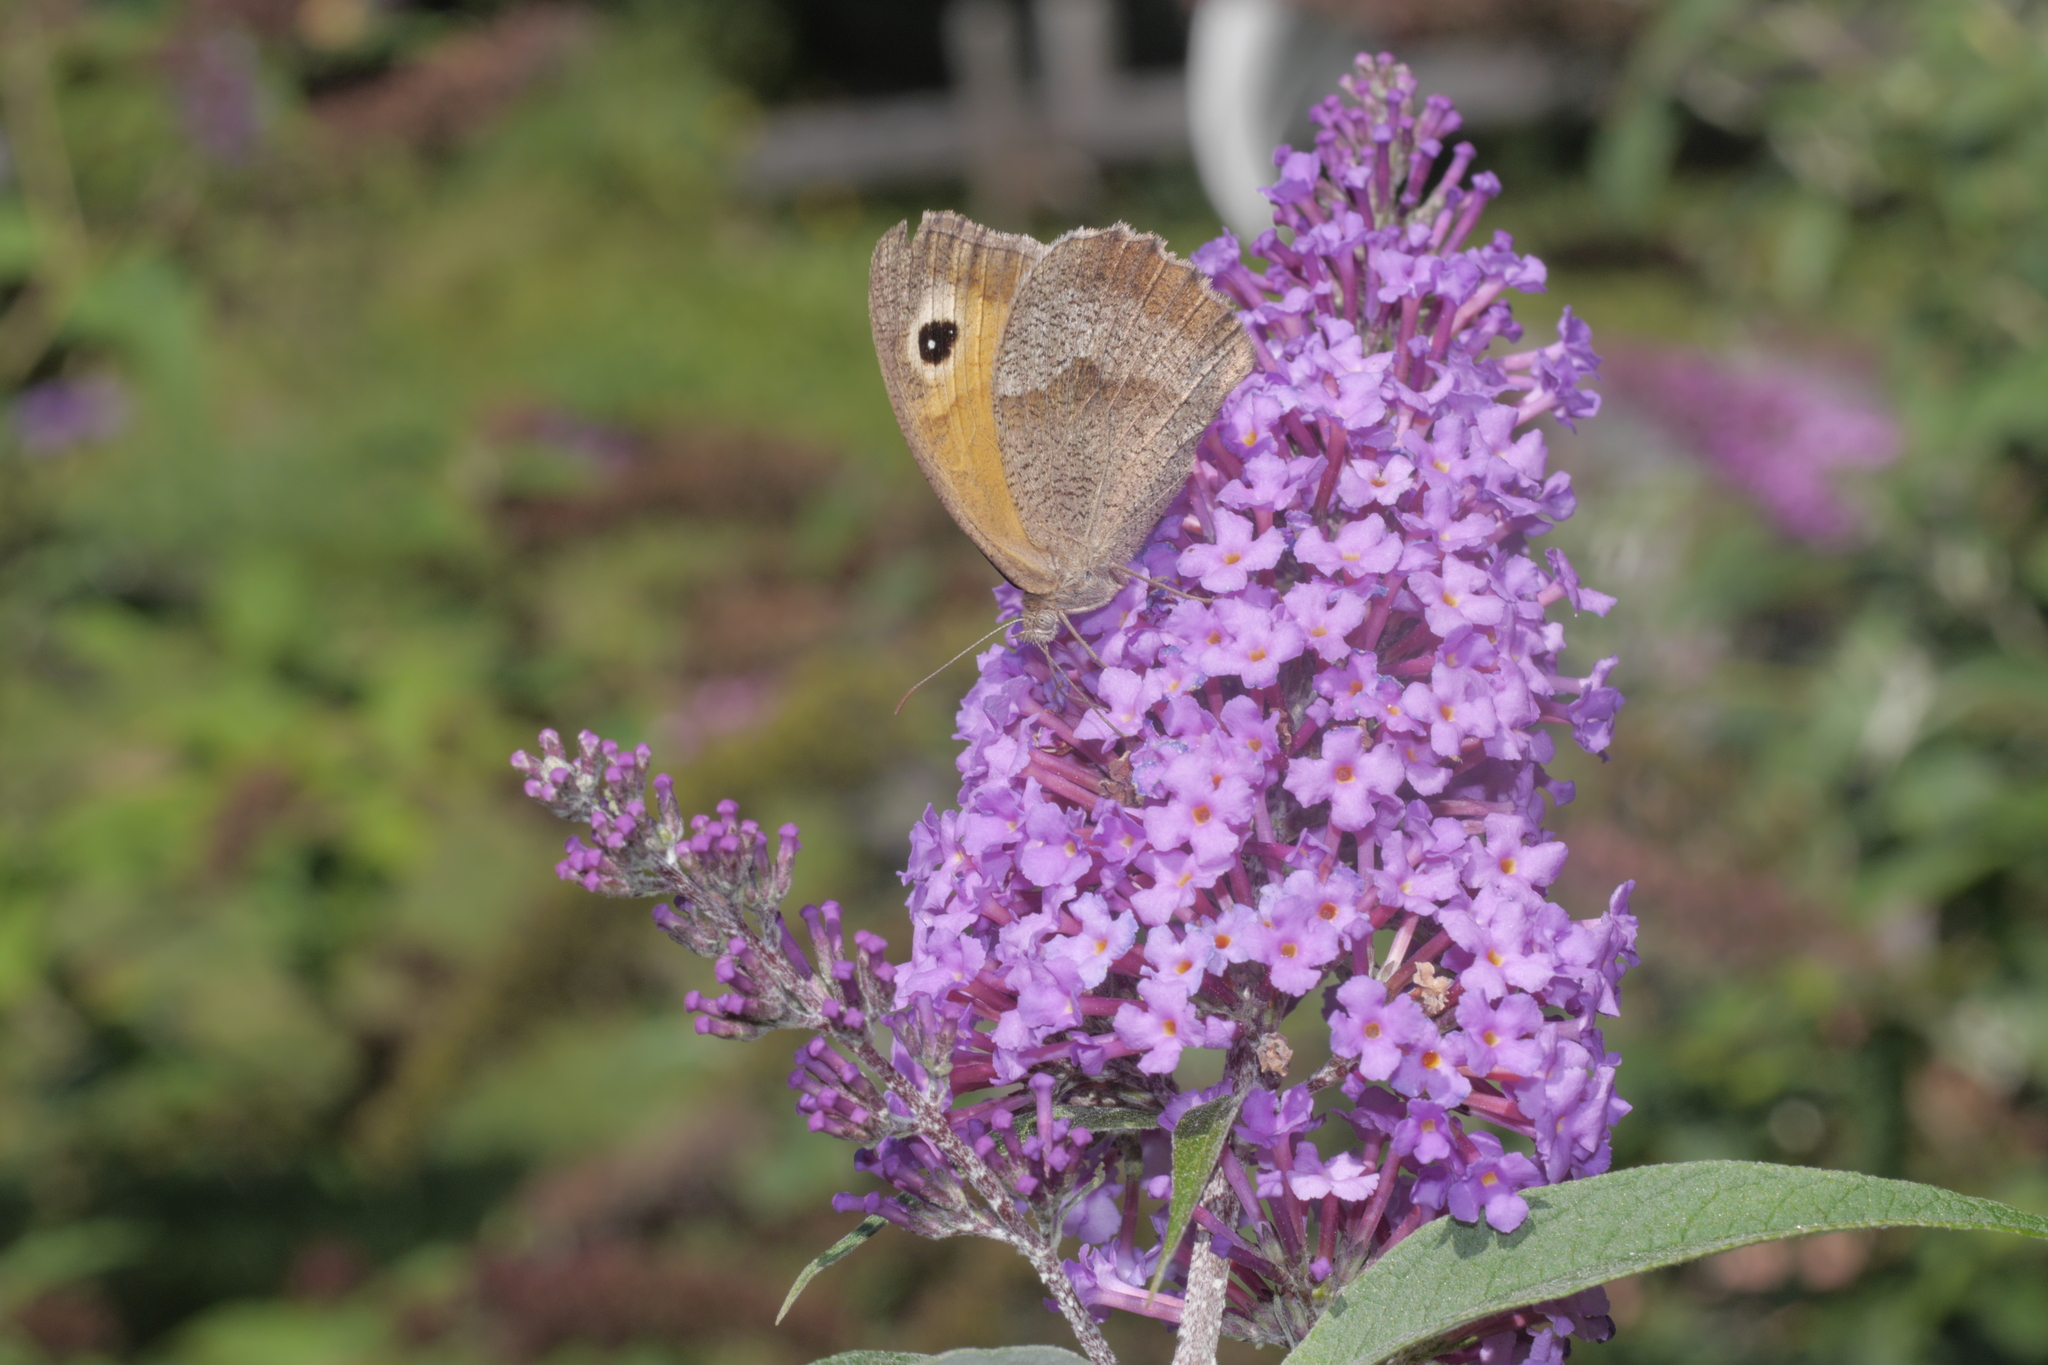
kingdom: Animalia
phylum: Arthropoda
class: Insecta
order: Lepidoptera
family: Nymphalidae
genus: Maniola
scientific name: Maniola jurtina
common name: Meadow brown
